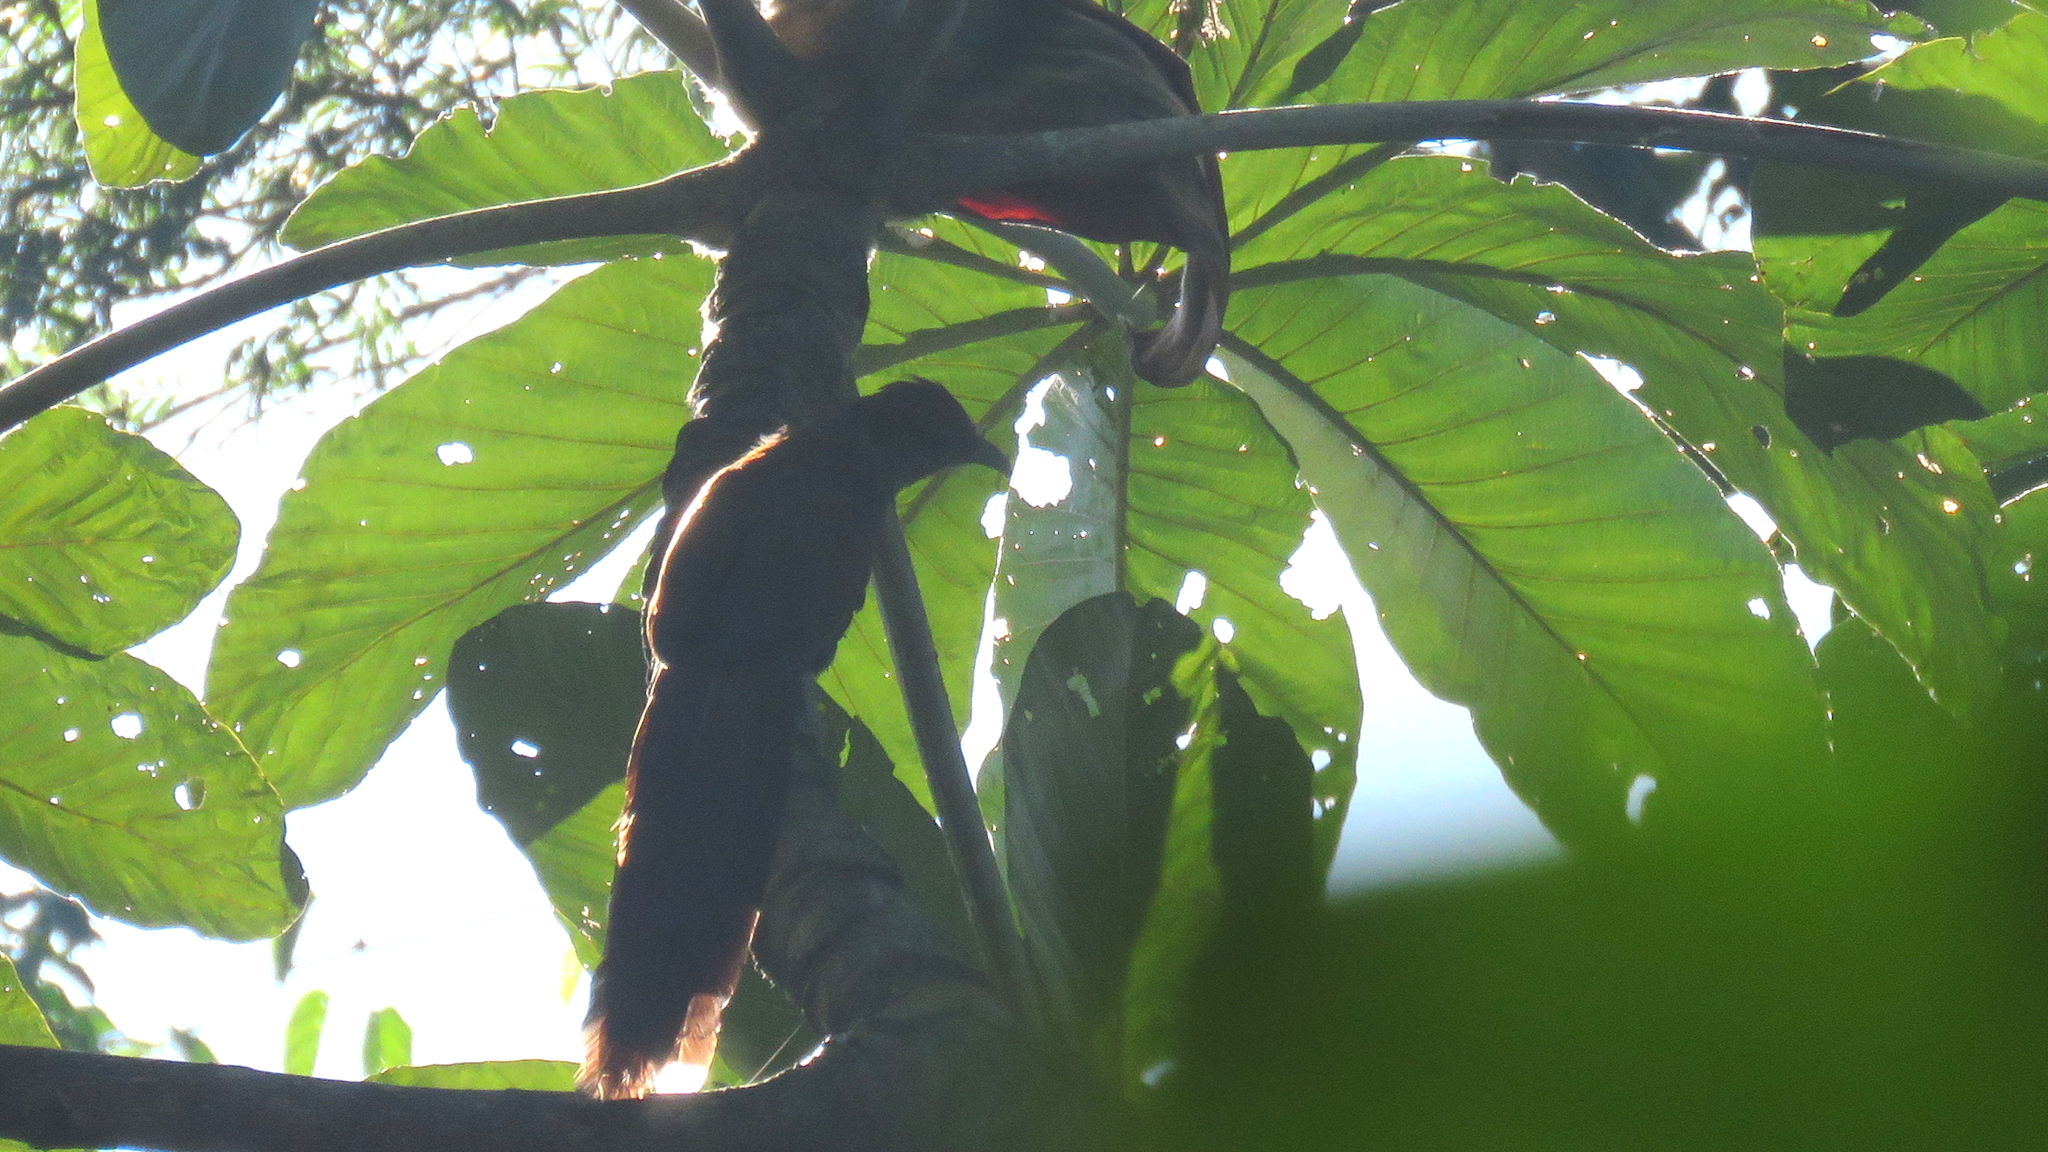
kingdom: Animalia
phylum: Chordata
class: Aves
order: Cuculiformes
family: Cuculidae
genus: Piaya
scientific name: Piaya cayana
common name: Squirrel cuckoo
